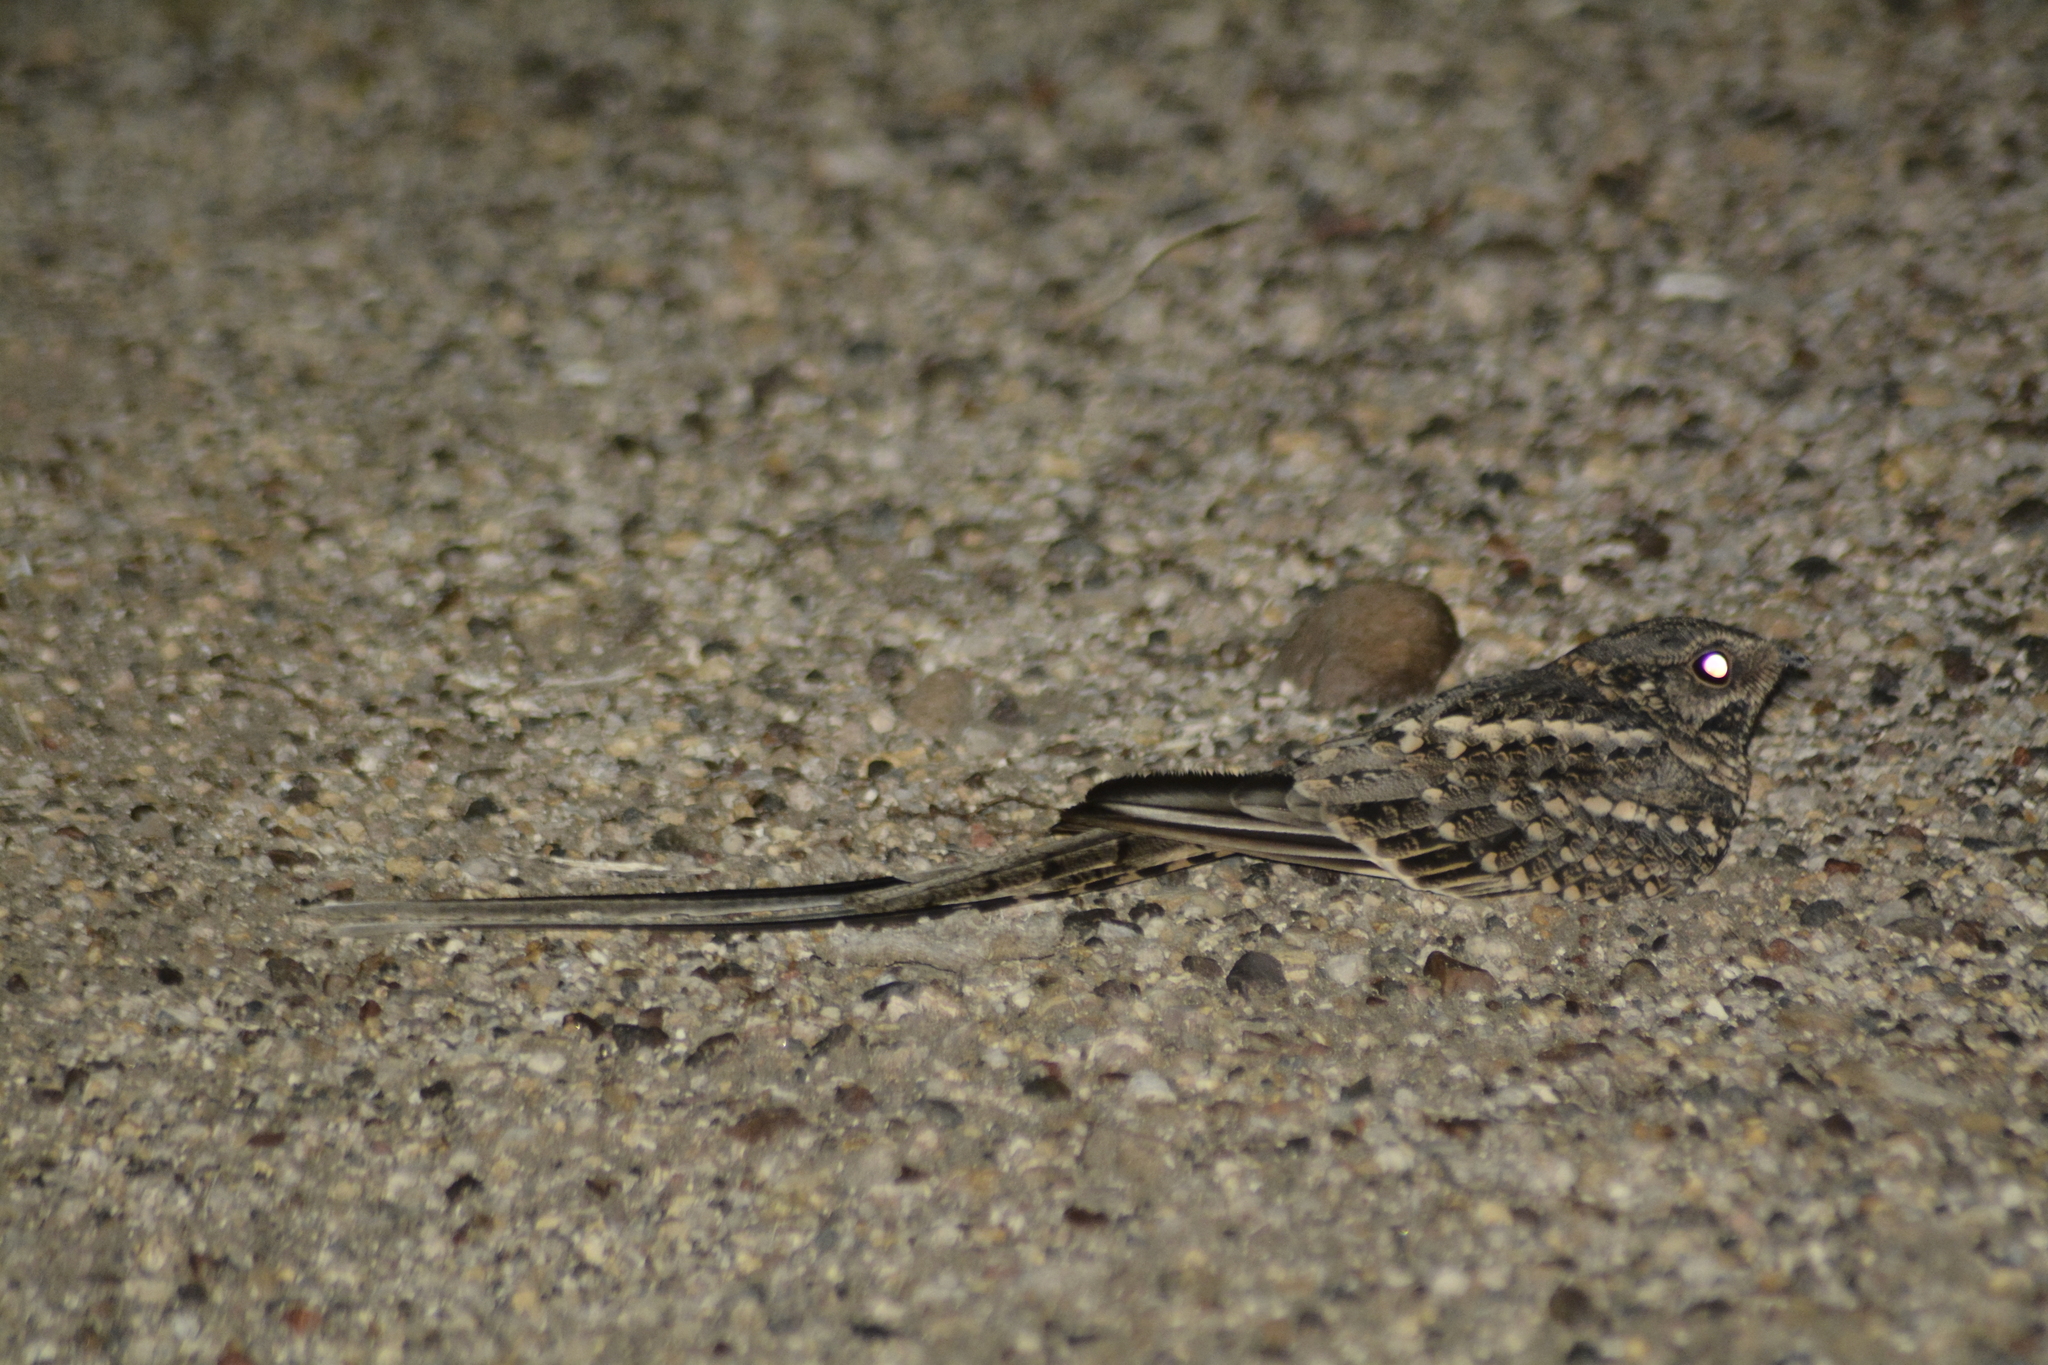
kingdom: Animalia
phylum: Chordata
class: Aves
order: Caprimulgiformes
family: Caprimulgidae
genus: Hydropsalis
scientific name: Hydropsalis torquata
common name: Scissor-tailed nightjar
